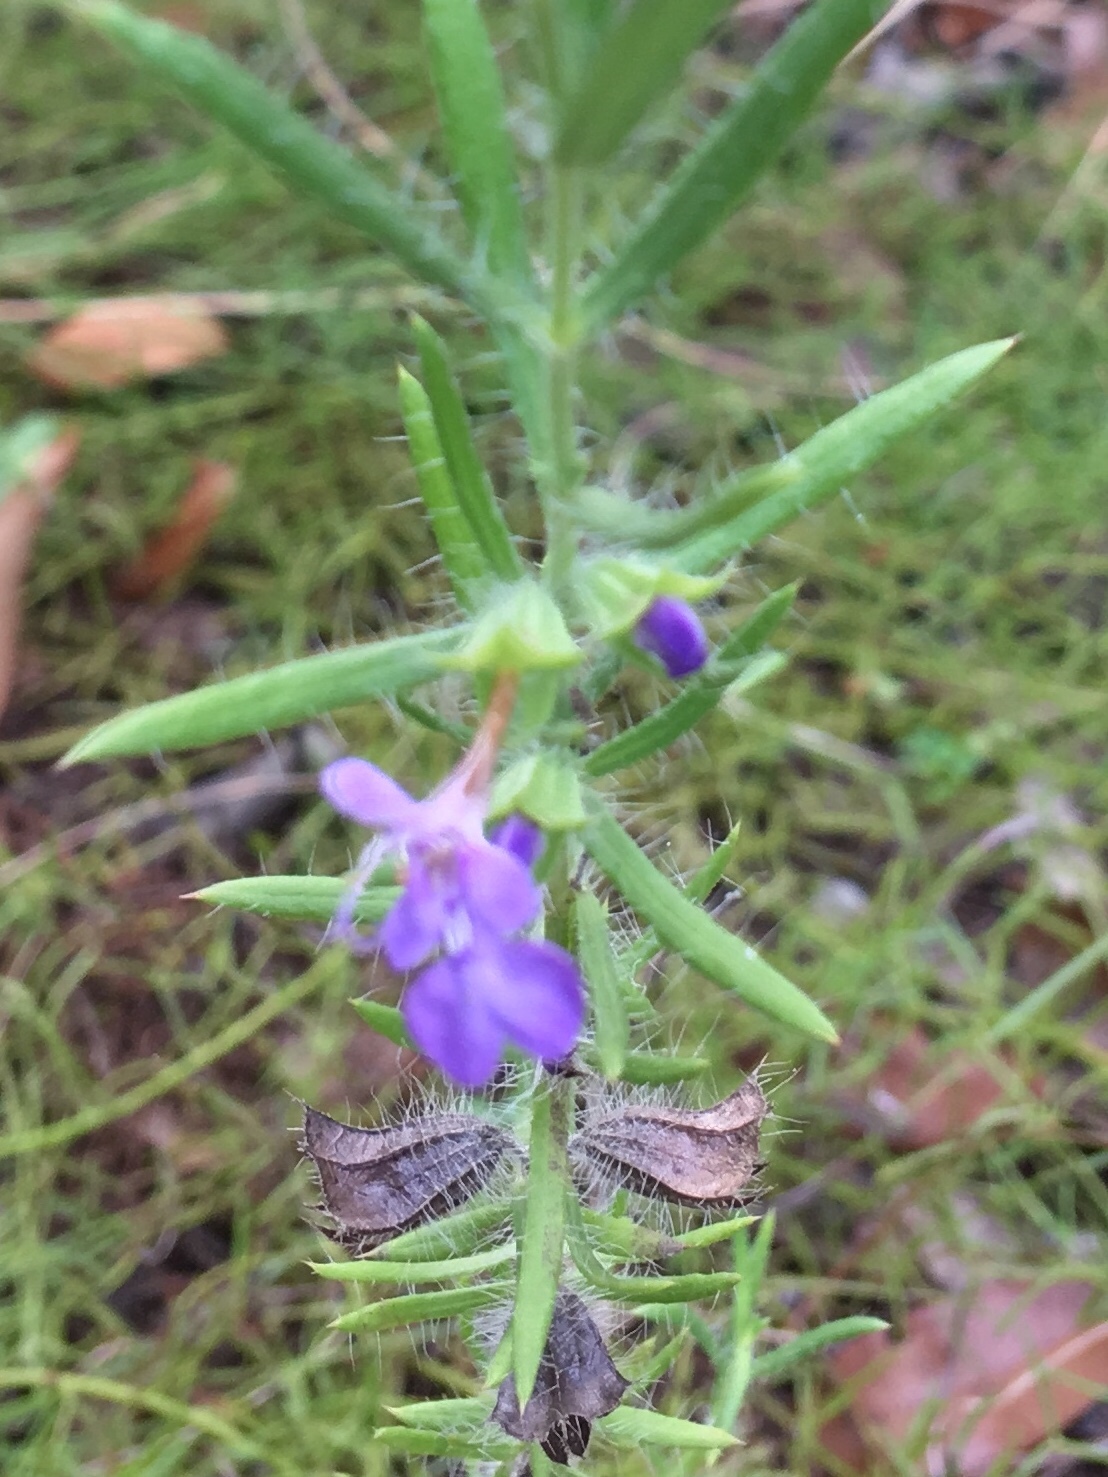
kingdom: Plantae
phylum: Tracheophyta
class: Magnoliopsida
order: Lamiales
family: Lamiaceae
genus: Salvia
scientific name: Salvia texana
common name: Texas sage
